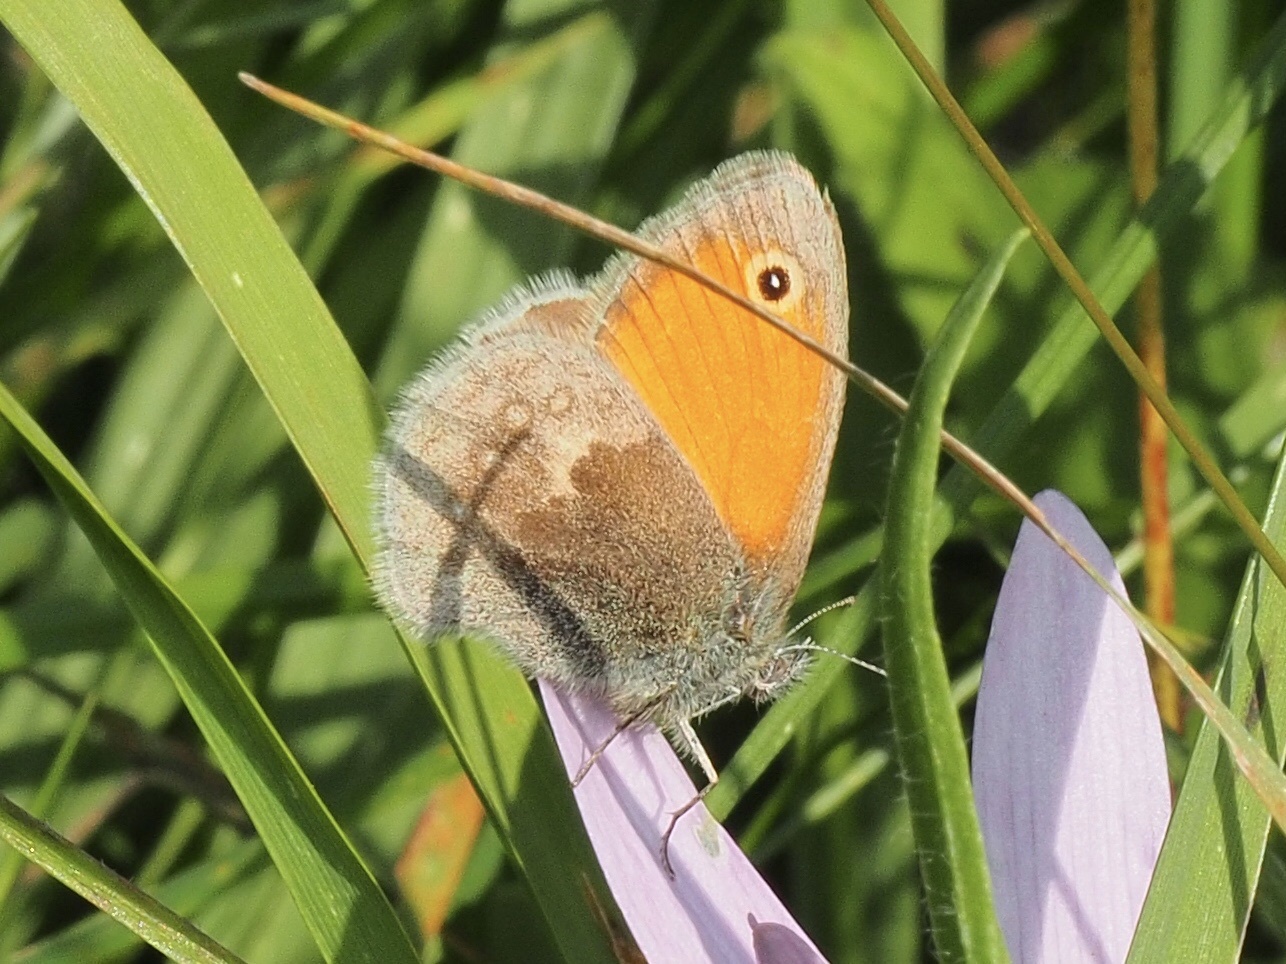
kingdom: Animalia
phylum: Arthropoda
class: Insecta
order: Lepidoptera
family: Nymphalidae
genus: Coenonympha
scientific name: Coenonympha pamphilus
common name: Small heath
